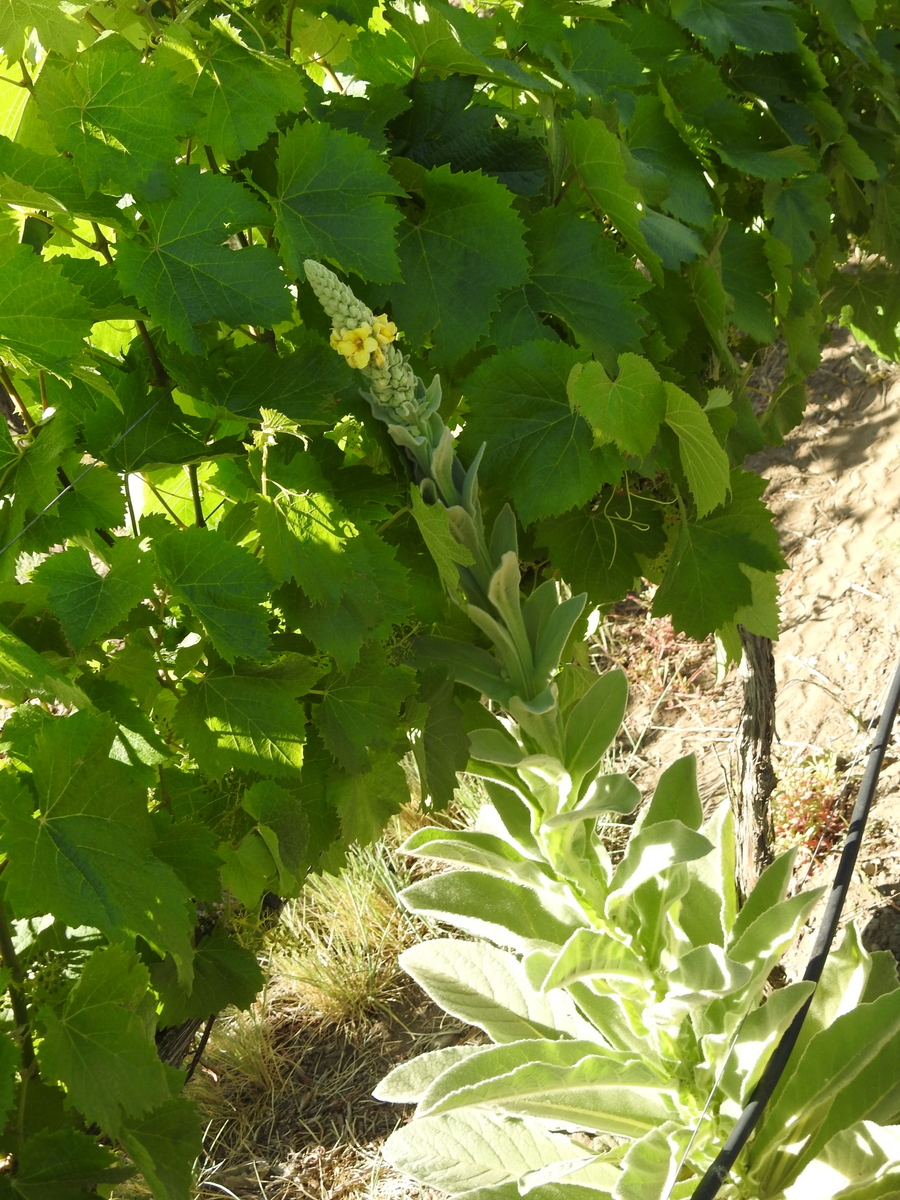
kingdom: Plantae
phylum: Tracheophyta
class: Magnoliopsida
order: Lamiales
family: Scrophulariaceae
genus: Verbascum
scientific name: Verbascum thapsus
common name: Common mullein
